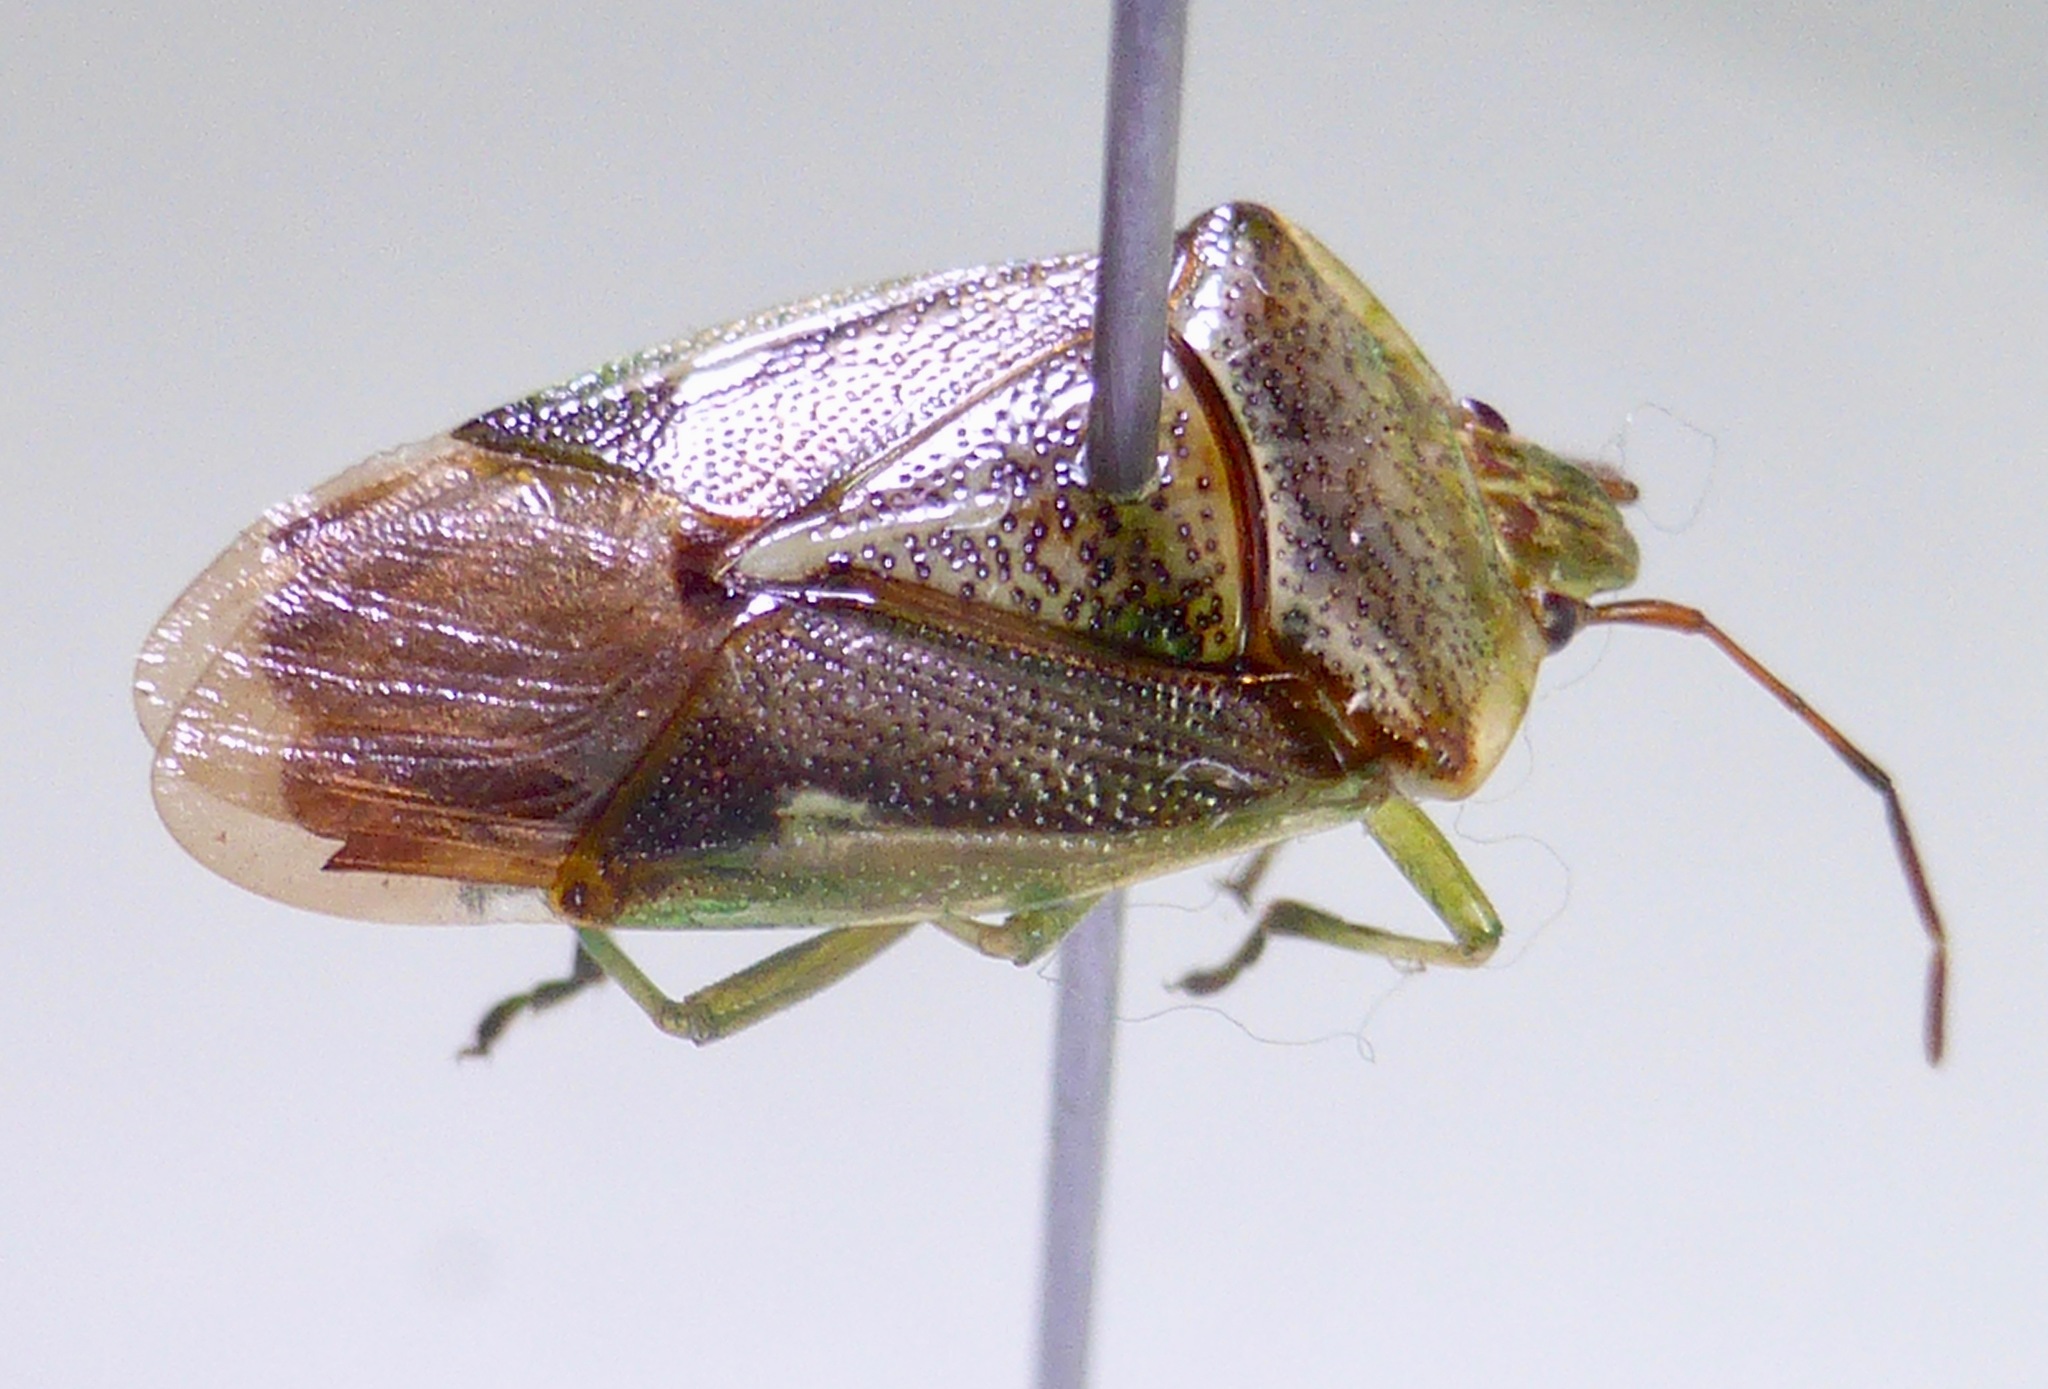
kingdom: Animalia
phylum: Arthropoda
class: Insecta
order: Hemiptera
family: Acanthosomatidae
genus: Oncacontias
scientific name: Oncacontias vittatus
